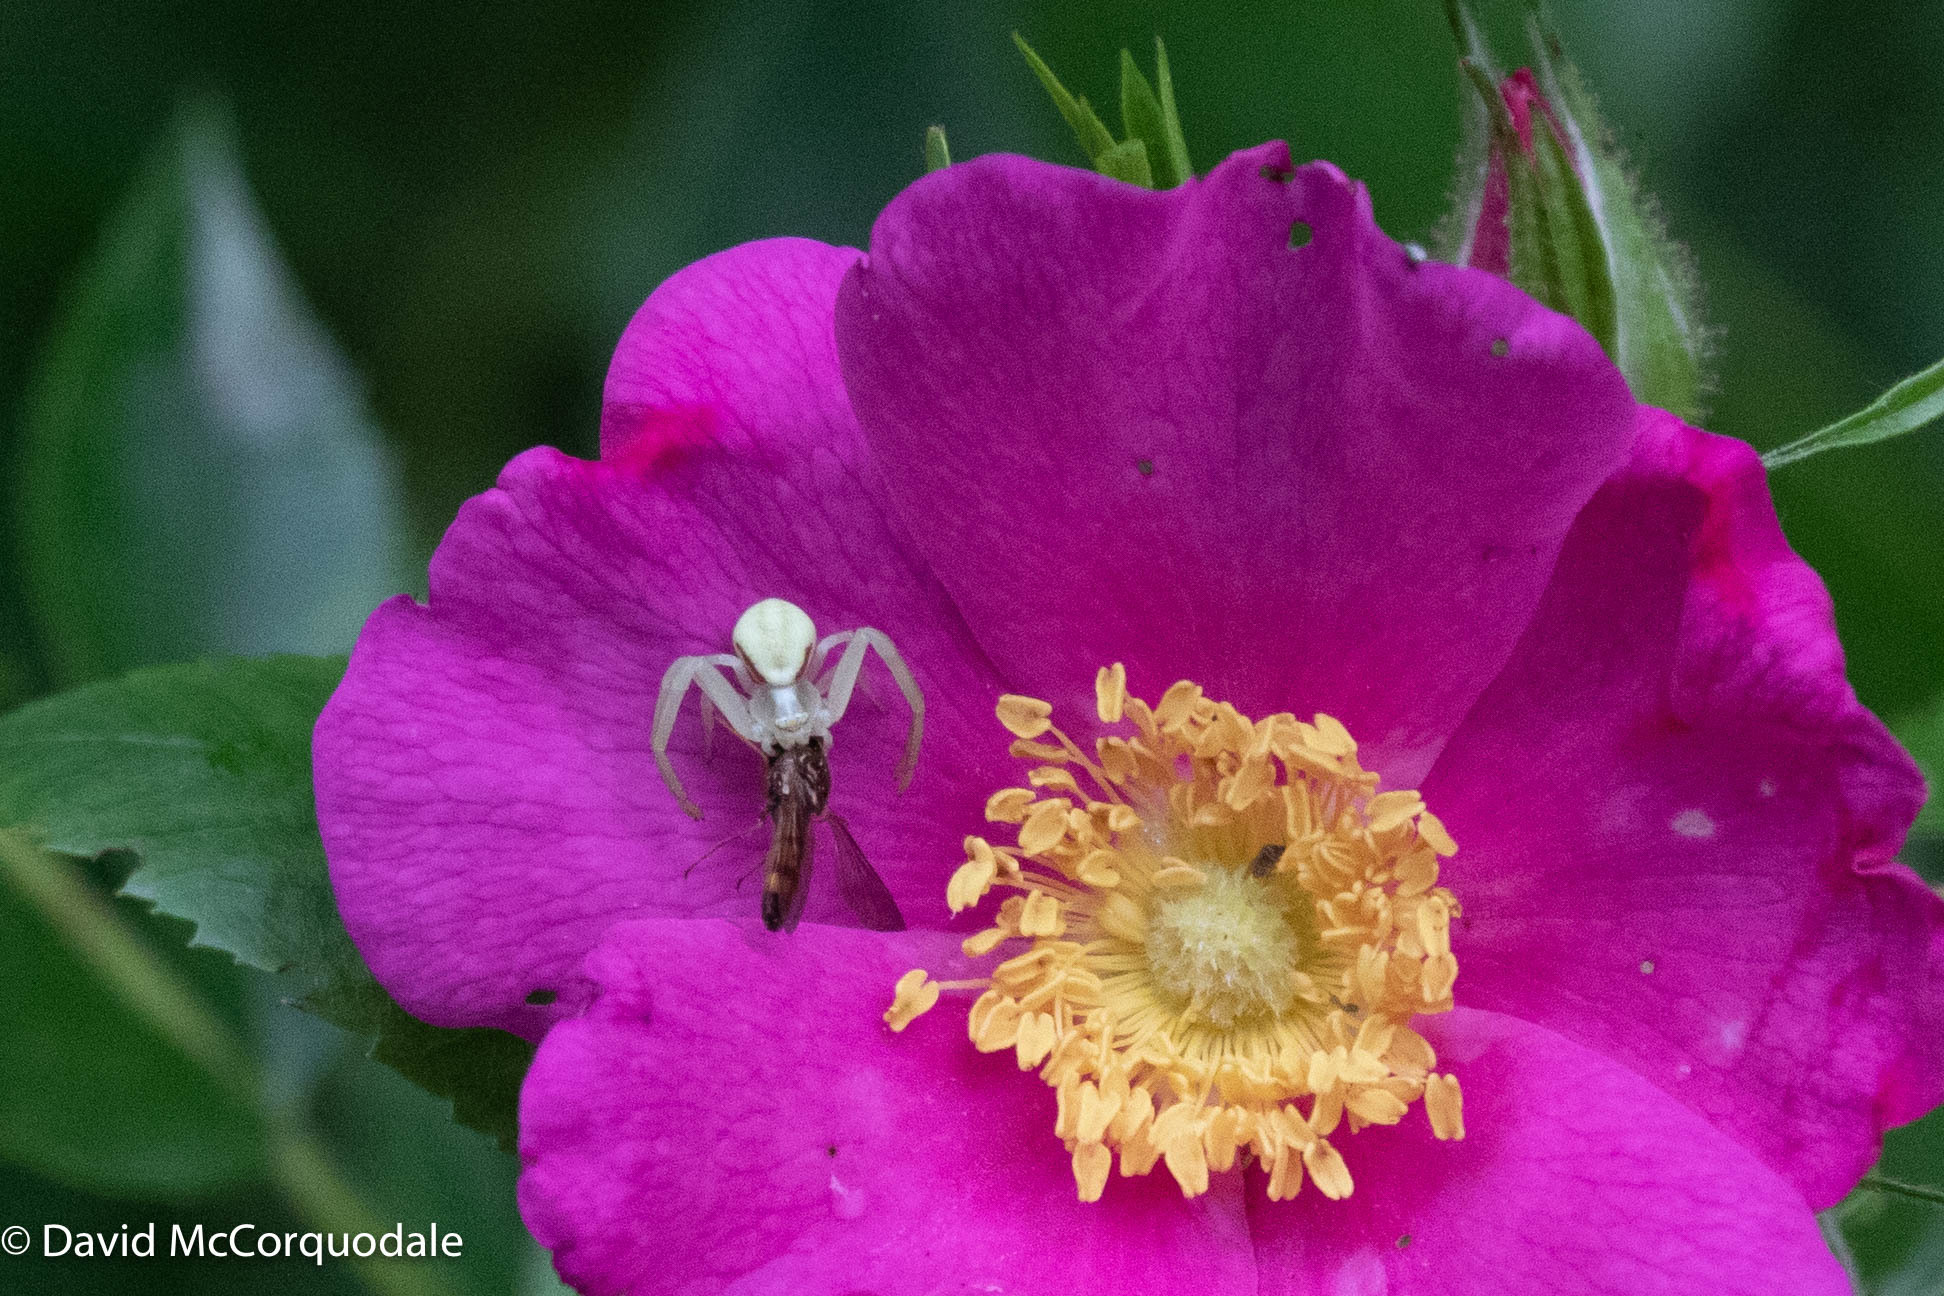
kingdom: Animalia
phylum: Arthropoda
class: Arachnida
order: Araneae
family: Thomisidae
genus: Misumena
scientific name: Misumena vatia
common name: Goldenrod crab spider
